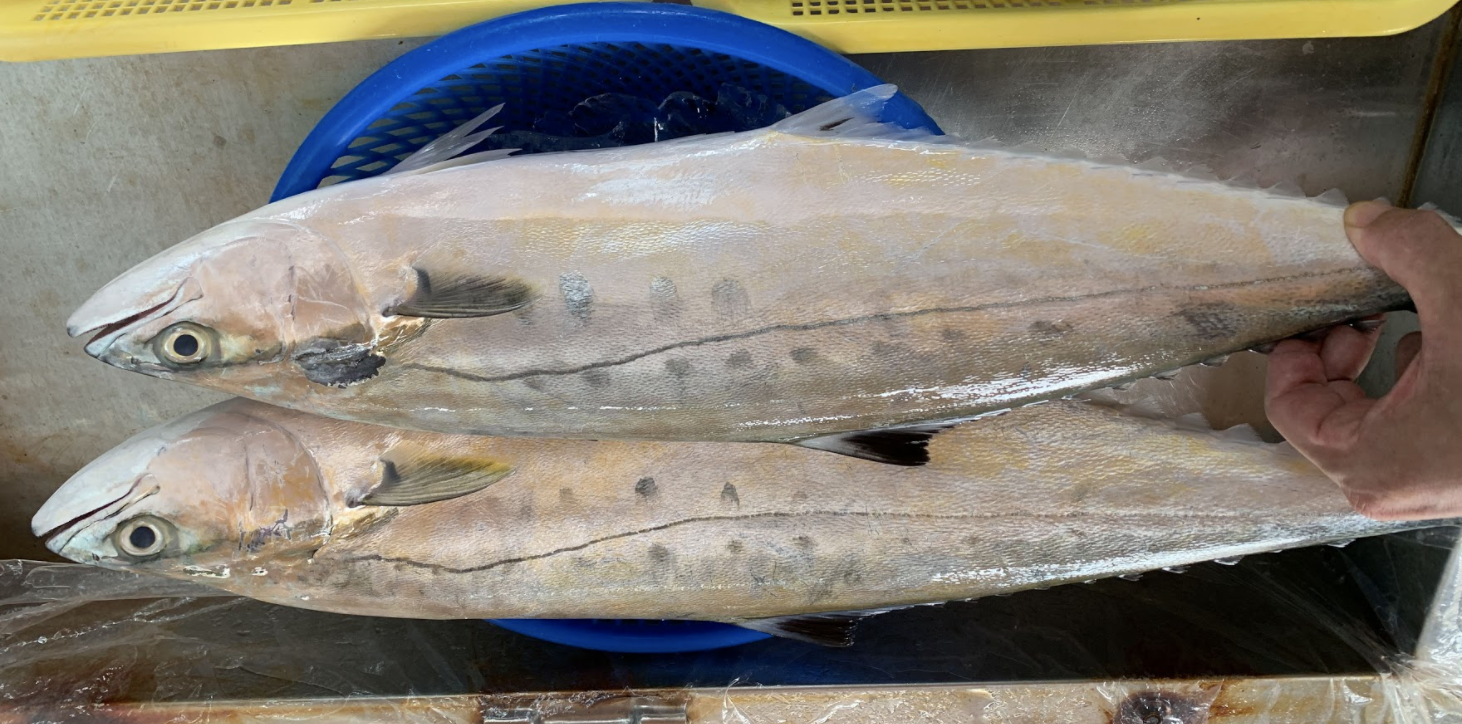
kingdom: Animalia
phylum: Chordata
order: Perciformes
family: Carangidae
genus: Scomberoides
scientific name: Scomberoides lysan
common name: Doublespotted queenfish
